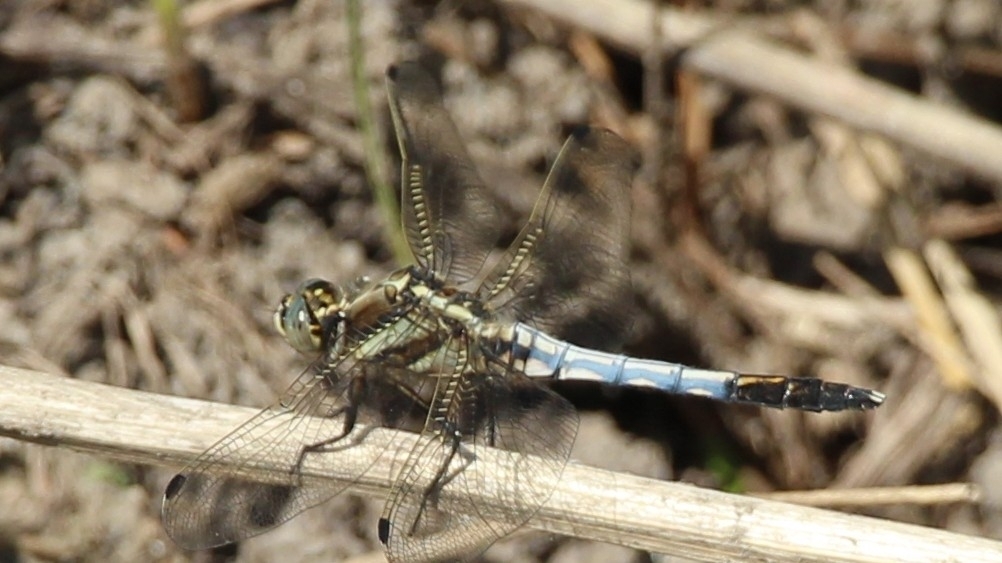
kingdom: Animalia
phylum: Arthropoda
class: Insecta
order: Odonata
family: Libellulidae
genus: Orthetrum
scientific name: Orthetrum albistylum
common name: White-tailed skimmer
